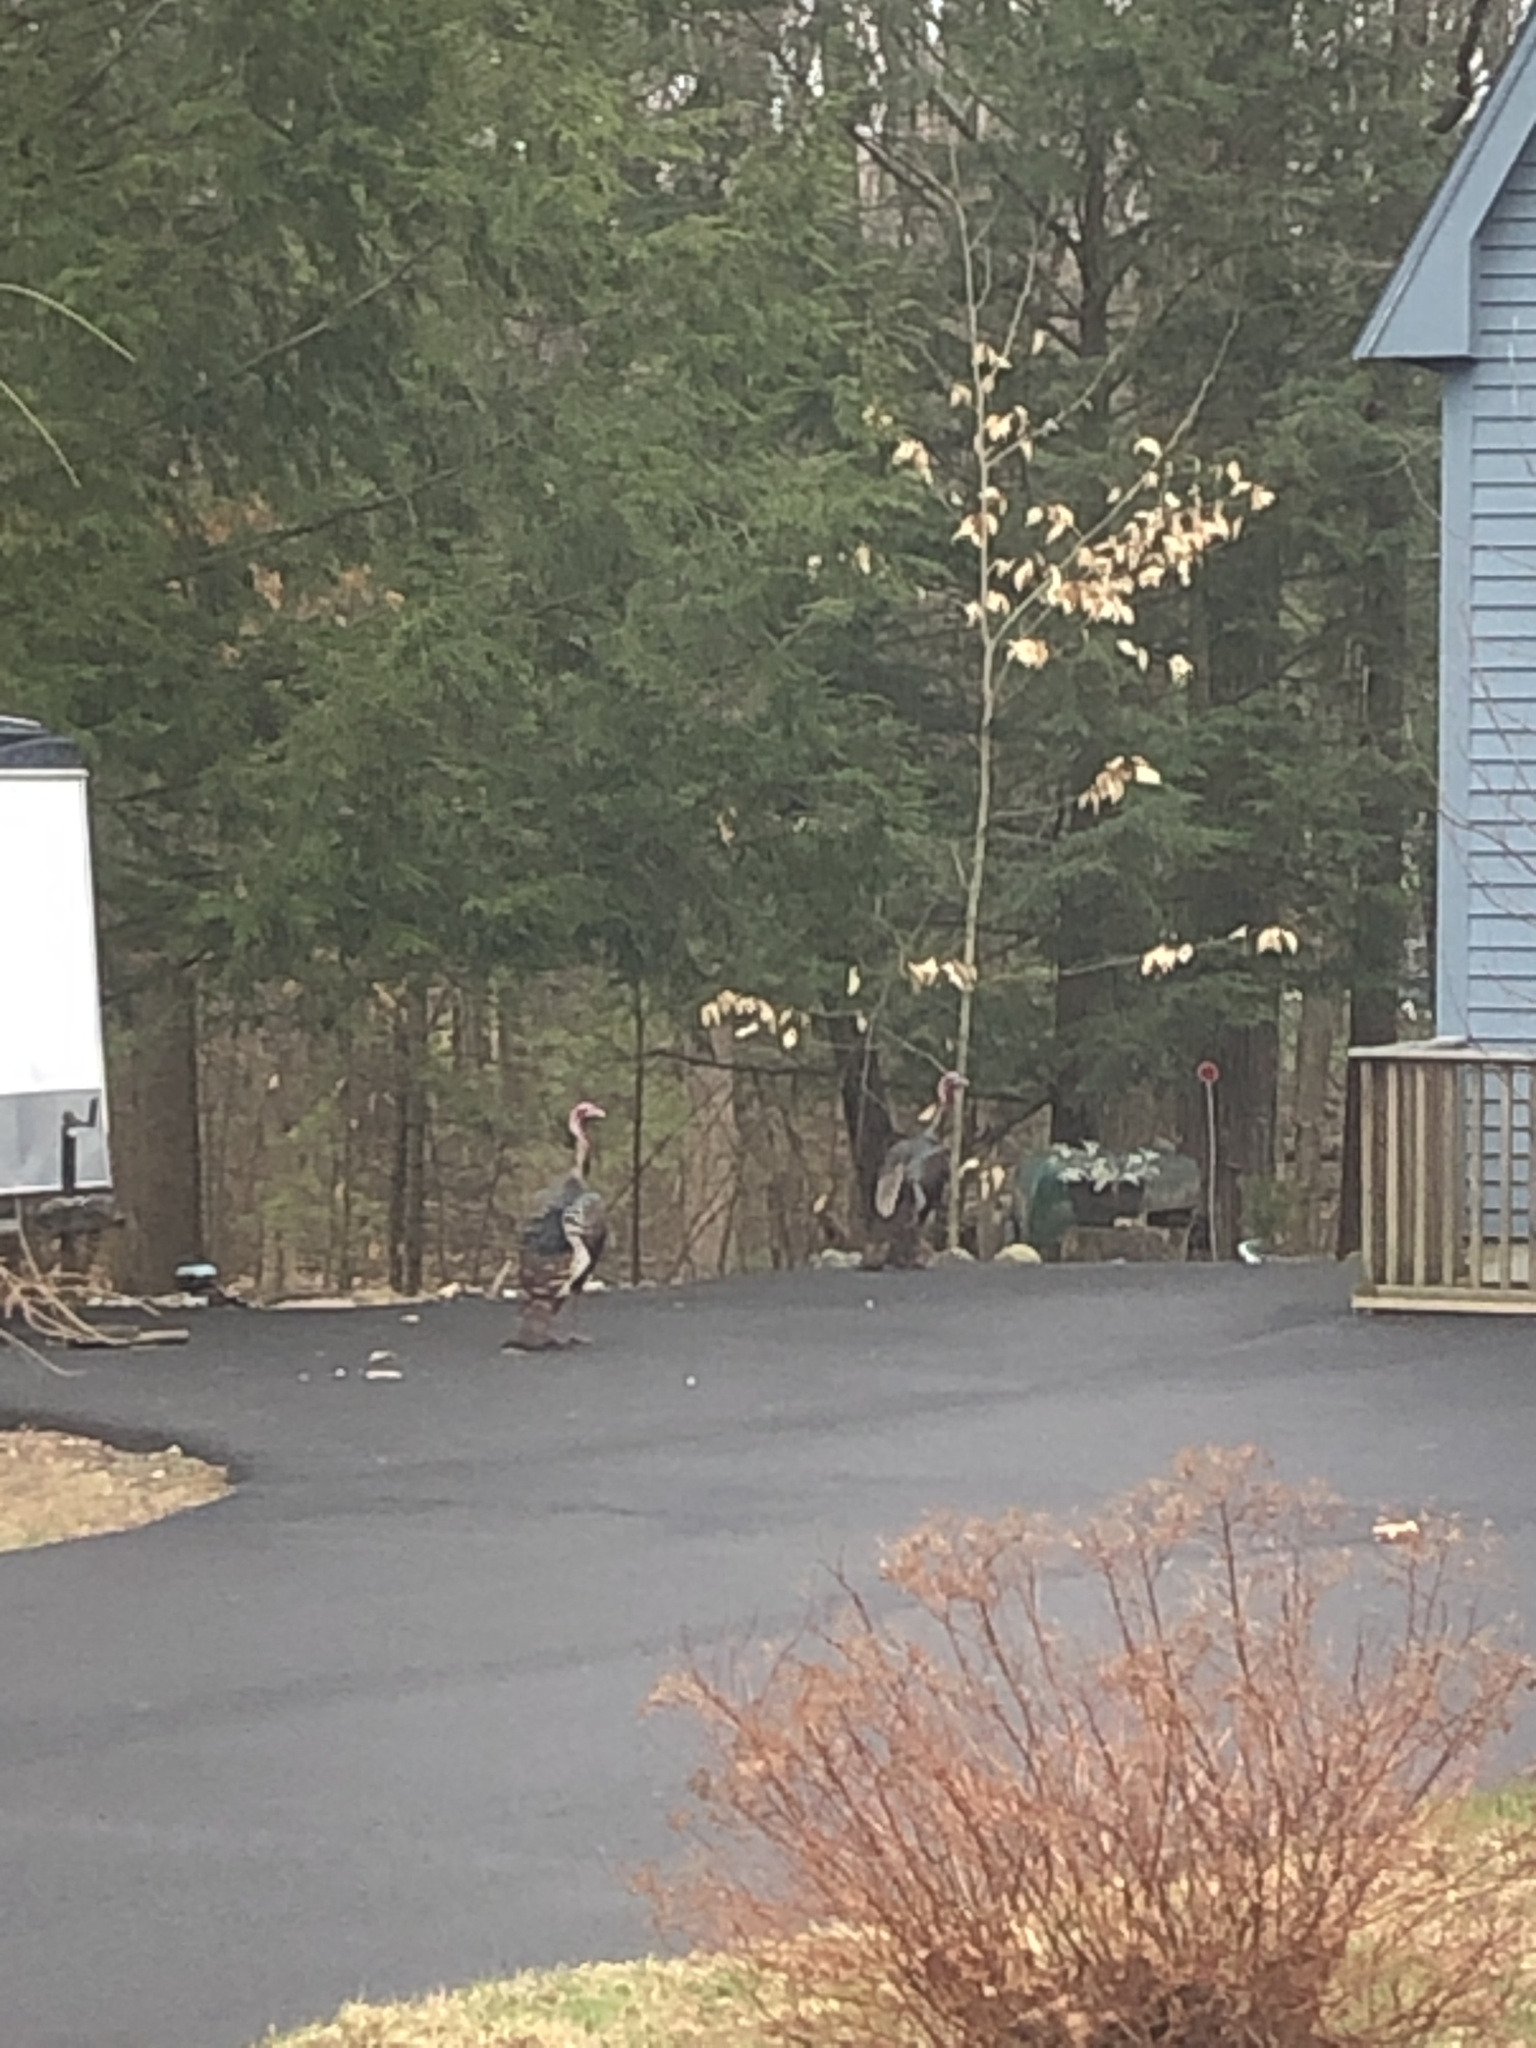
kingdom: Animalia
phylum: Chordata
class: Aves
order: Galliformes
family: Phasianidae
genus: Meleagris
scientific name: Meleagris gallopavo
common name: Wild turkey
